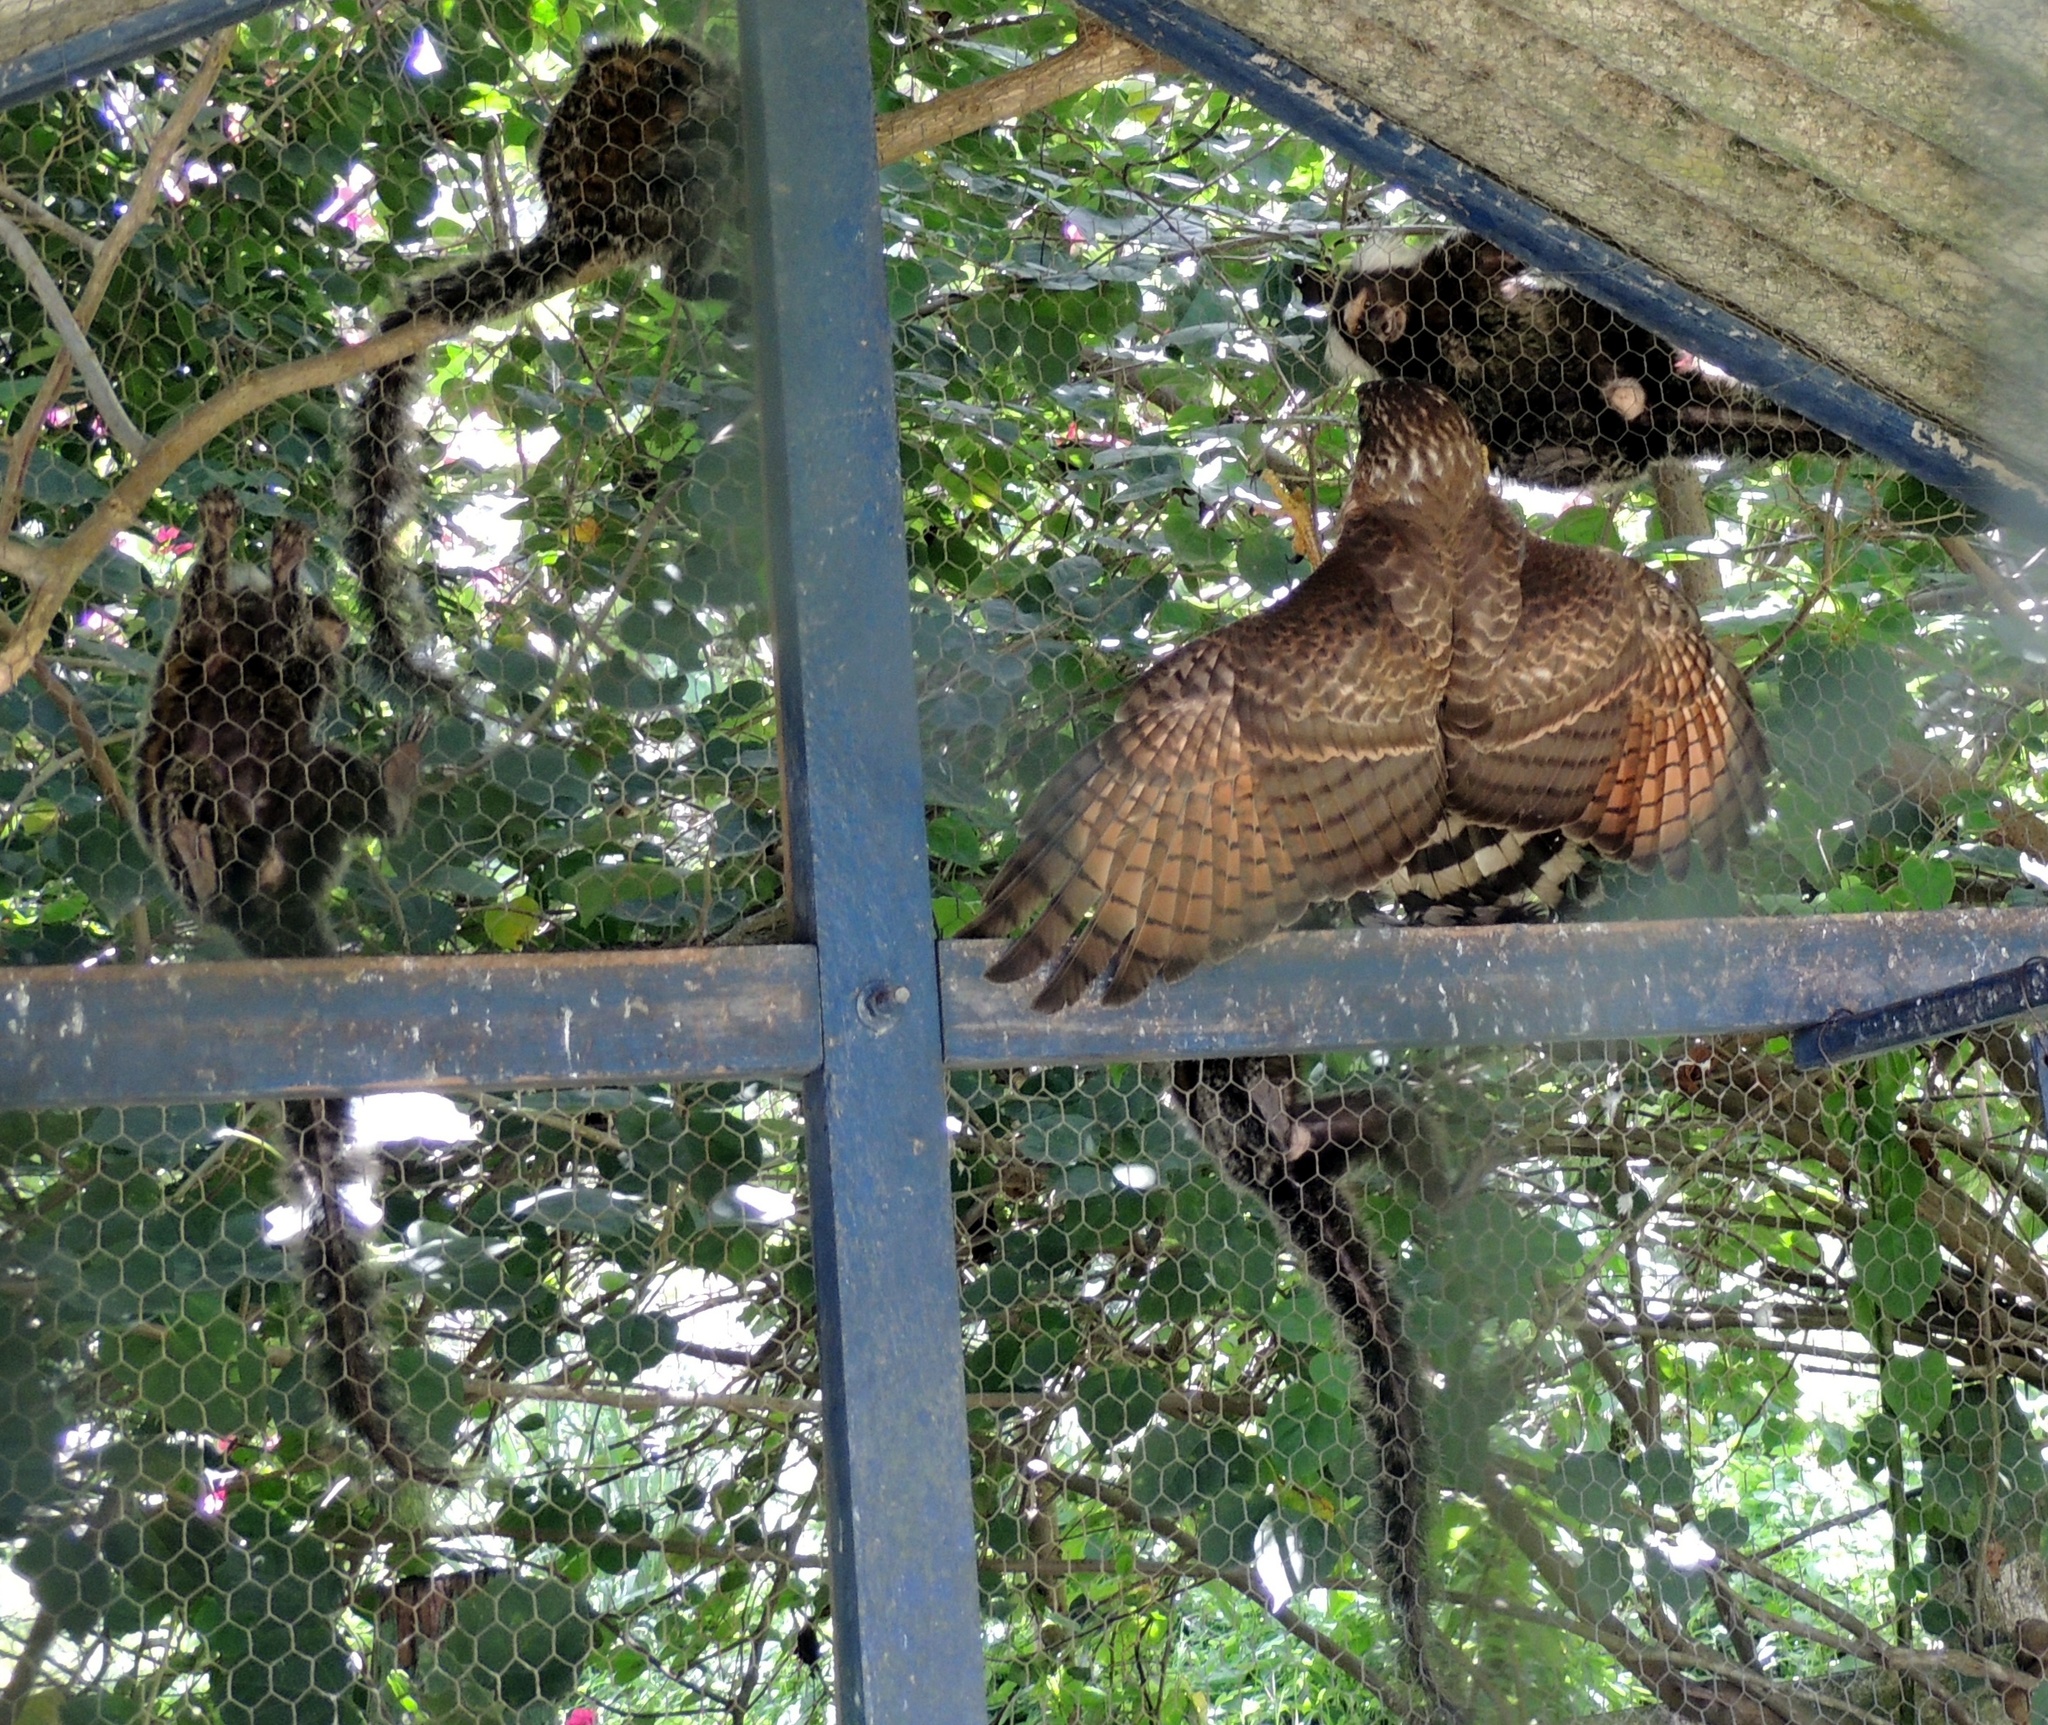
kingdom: Animalia
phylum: Chordata
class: Aves
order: Accipitriformes
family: Accipitridae
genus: Rupornis
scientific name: Rupornis magnirostris
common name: Roadside hawk
